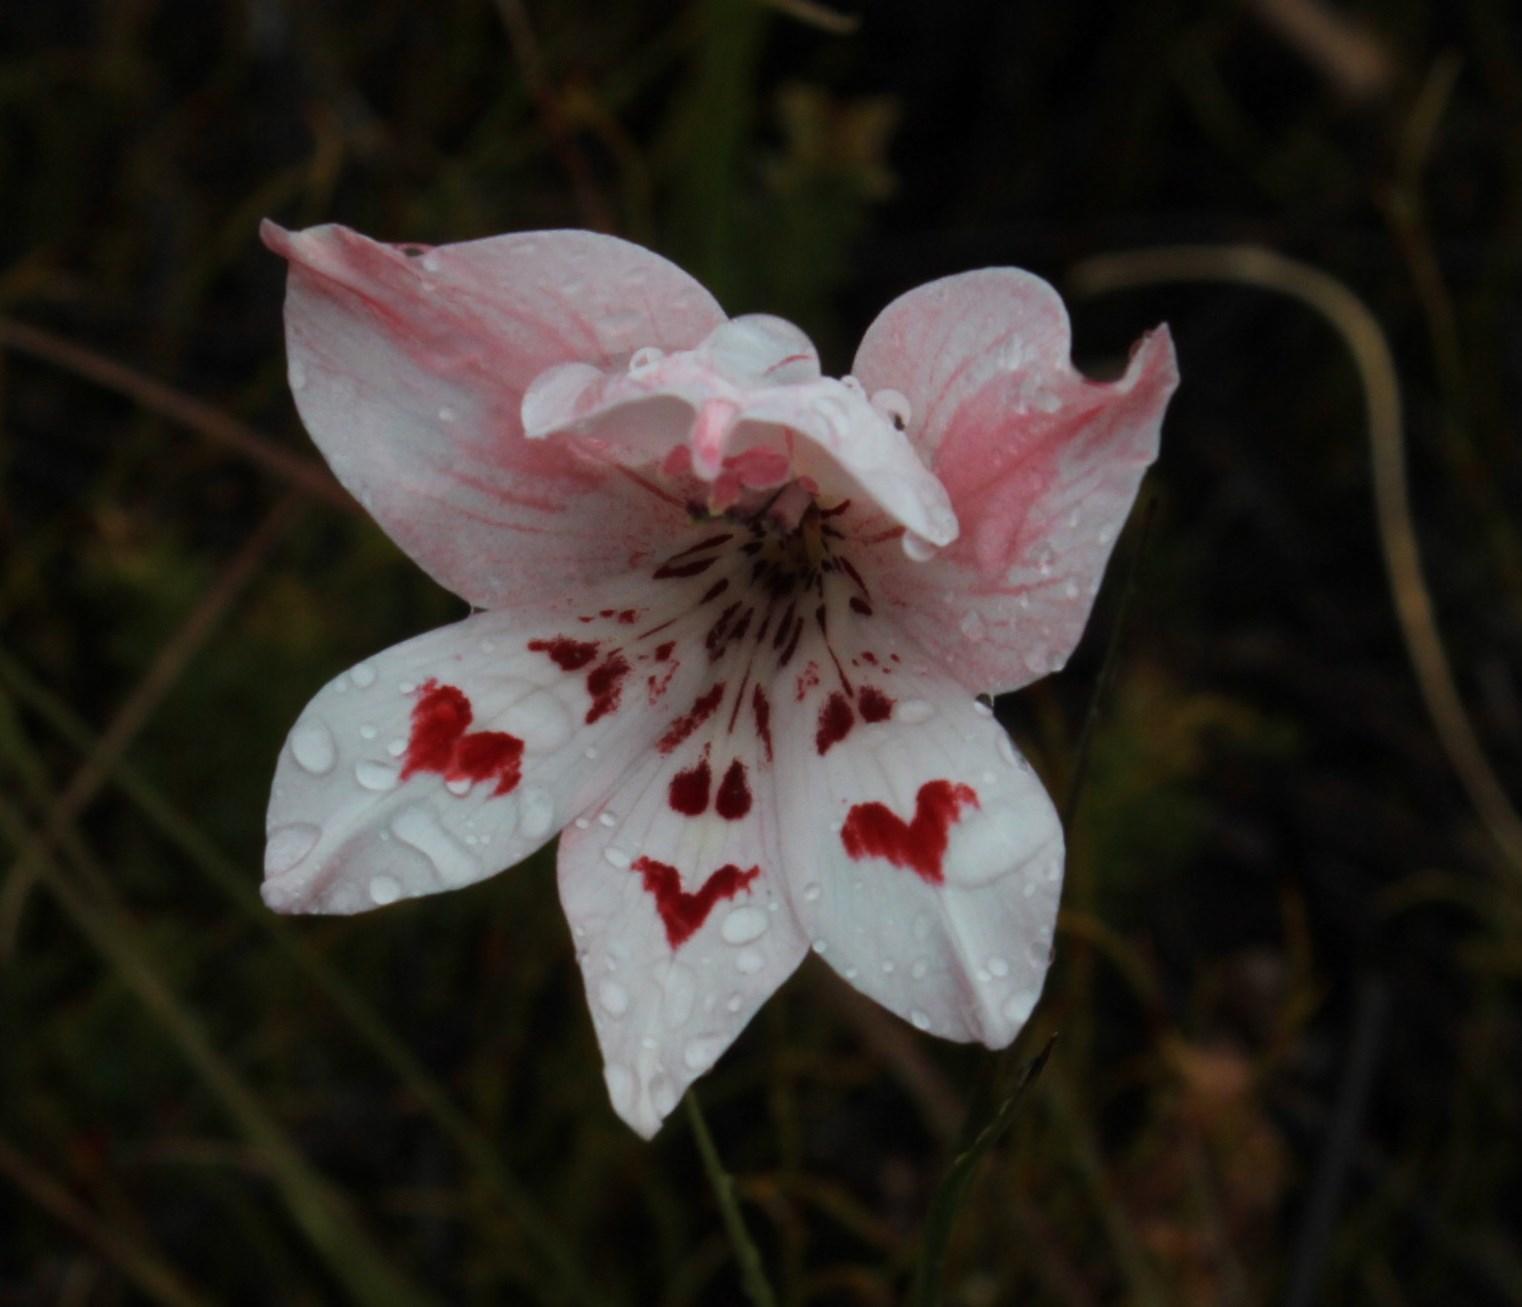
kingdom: Plantae
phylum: Tracheophyta
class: Liliopsida
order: Asparagales
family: Iridaceae
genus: Gladiolus
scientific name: Gladiolus debilis
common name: Painted-lady
